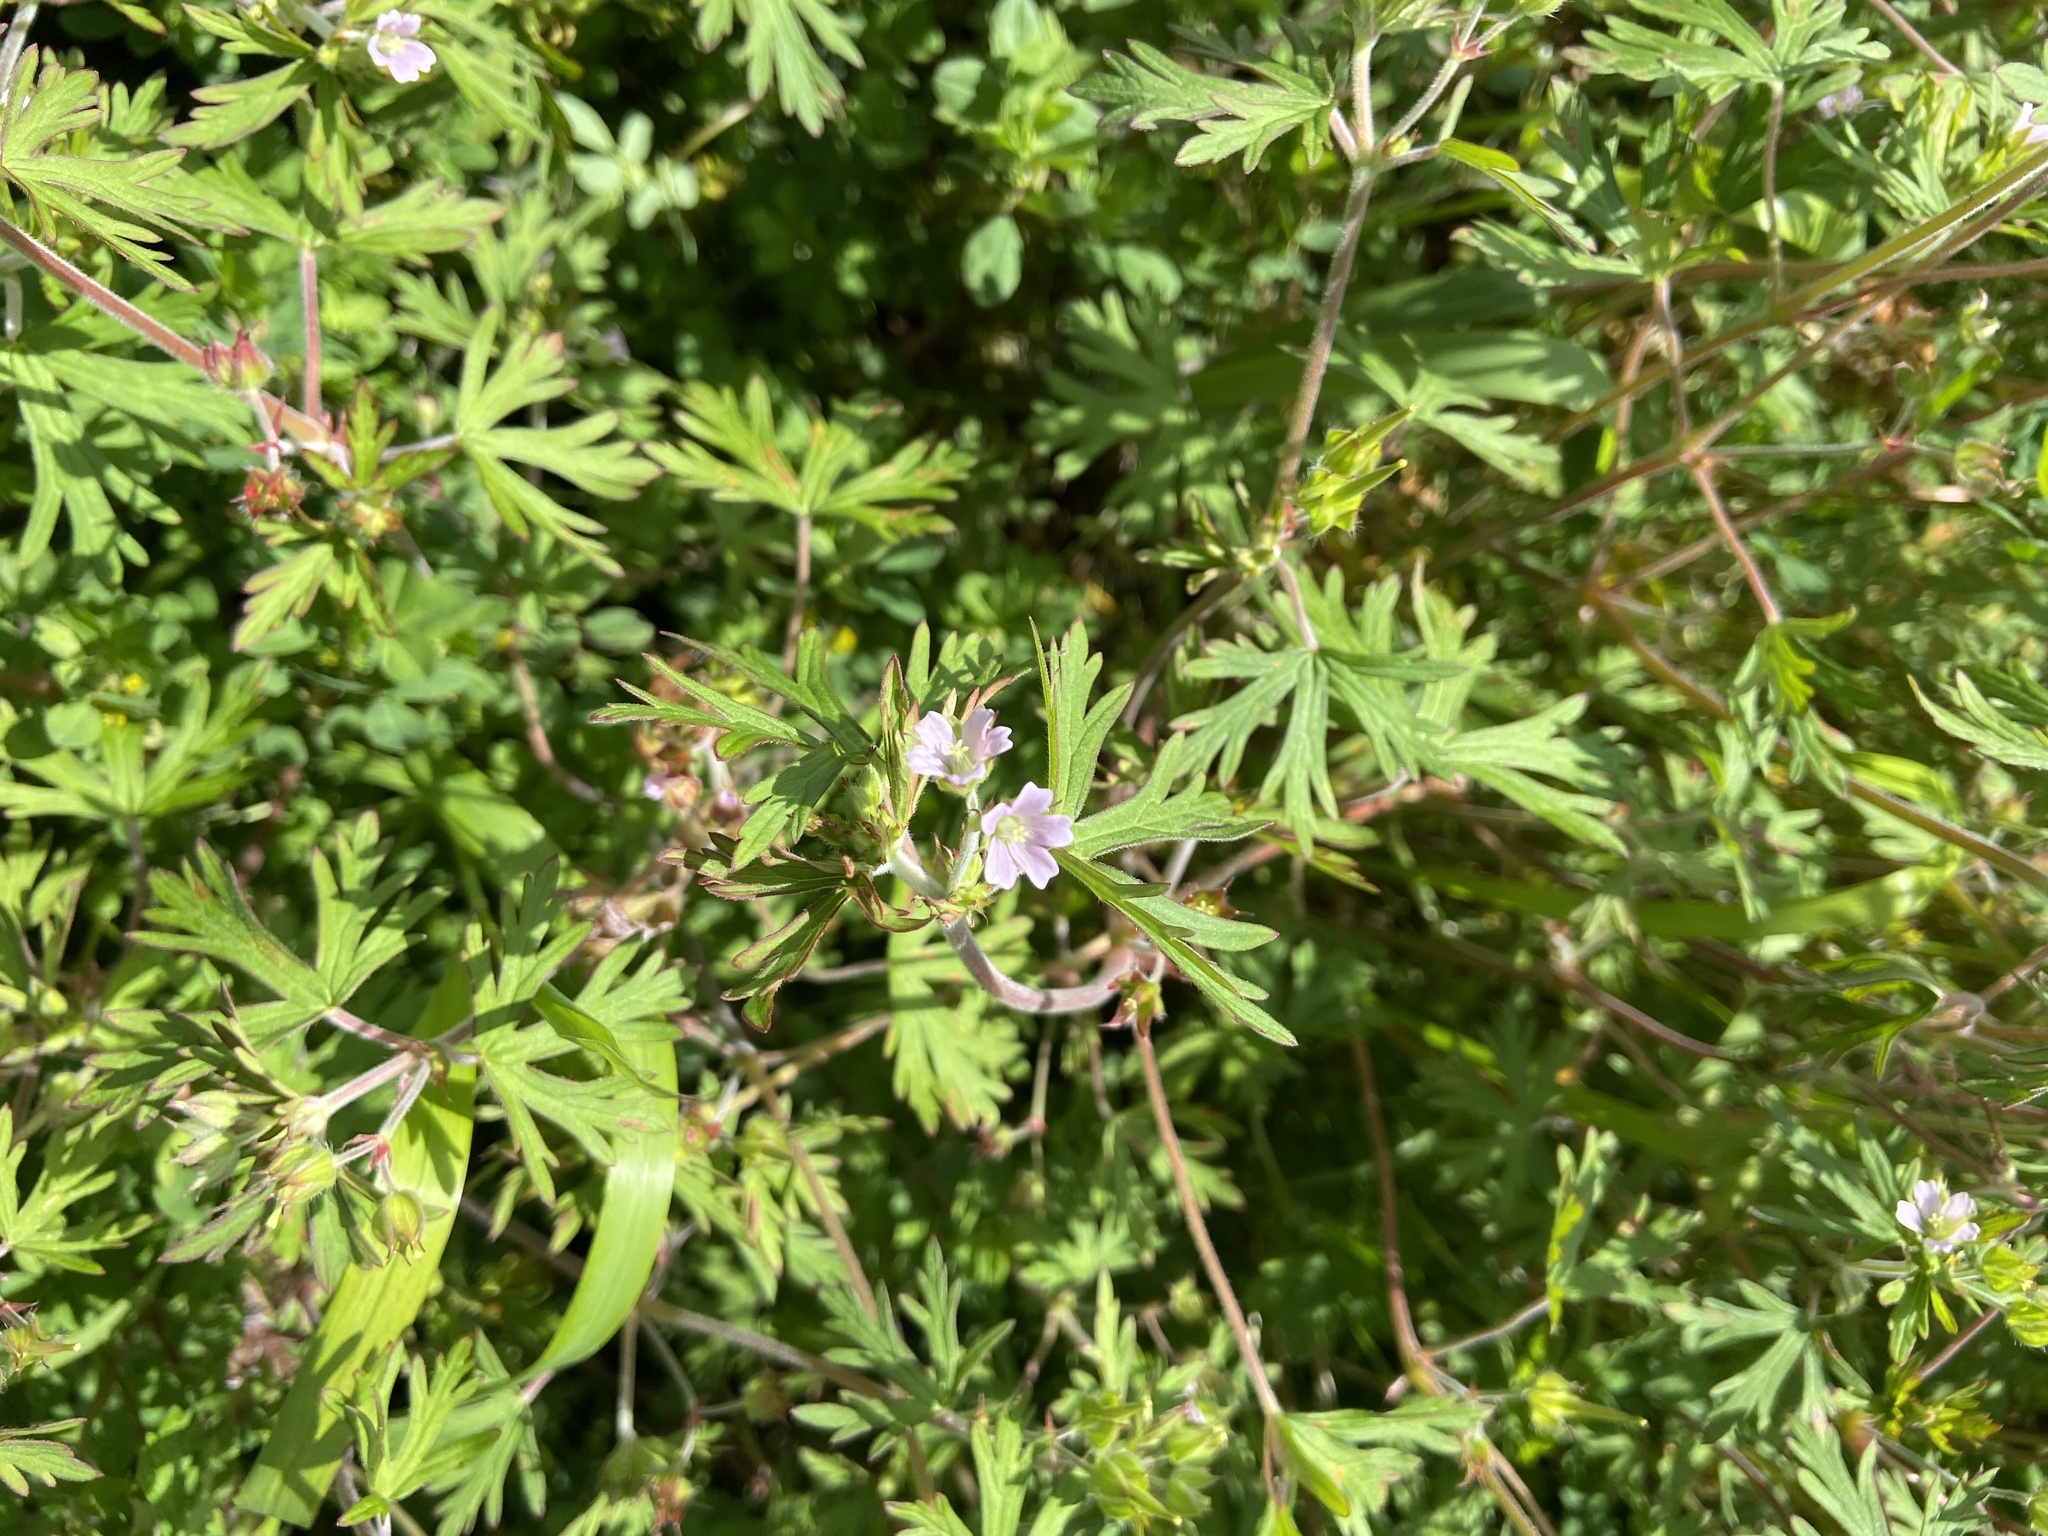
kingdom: Plantae
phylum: Tracheophyta
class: Magnoliopsida
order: Geraniales
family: Geraniaceae
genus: Geranium
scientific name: Geranium carolinianum
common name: Carolina crane's-bill
